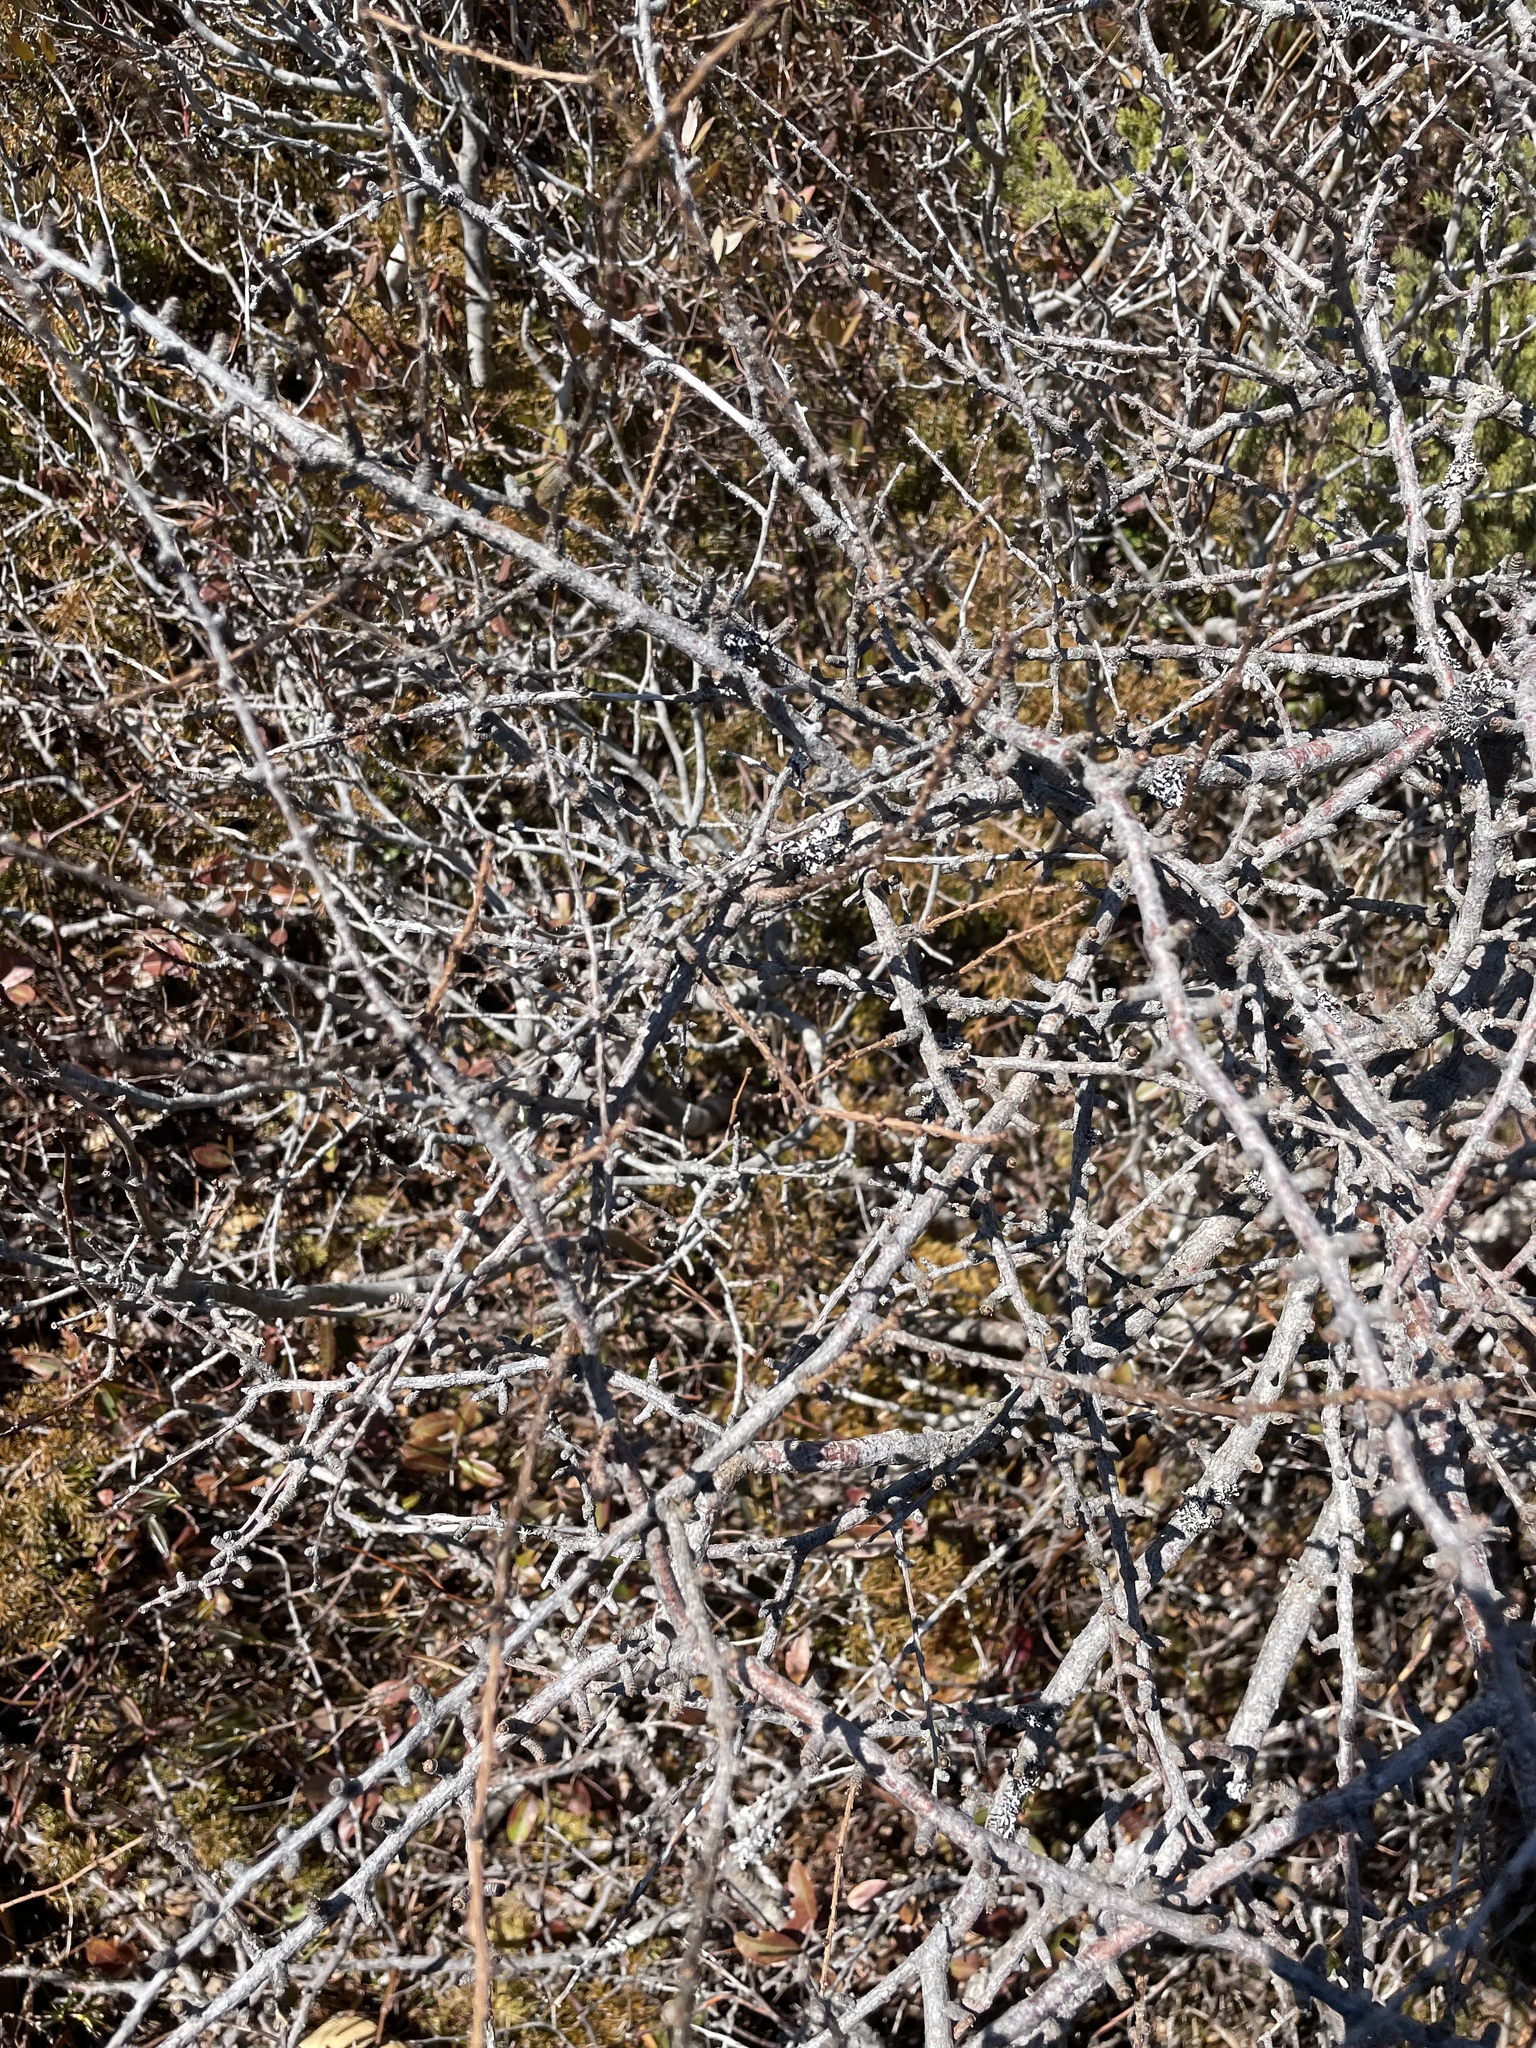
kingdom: Plantae
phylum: Tracheophyta
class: Pinopsida
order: Pinales
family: Pinaceae
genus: Larix
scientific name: Larix laricina
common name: American larch
